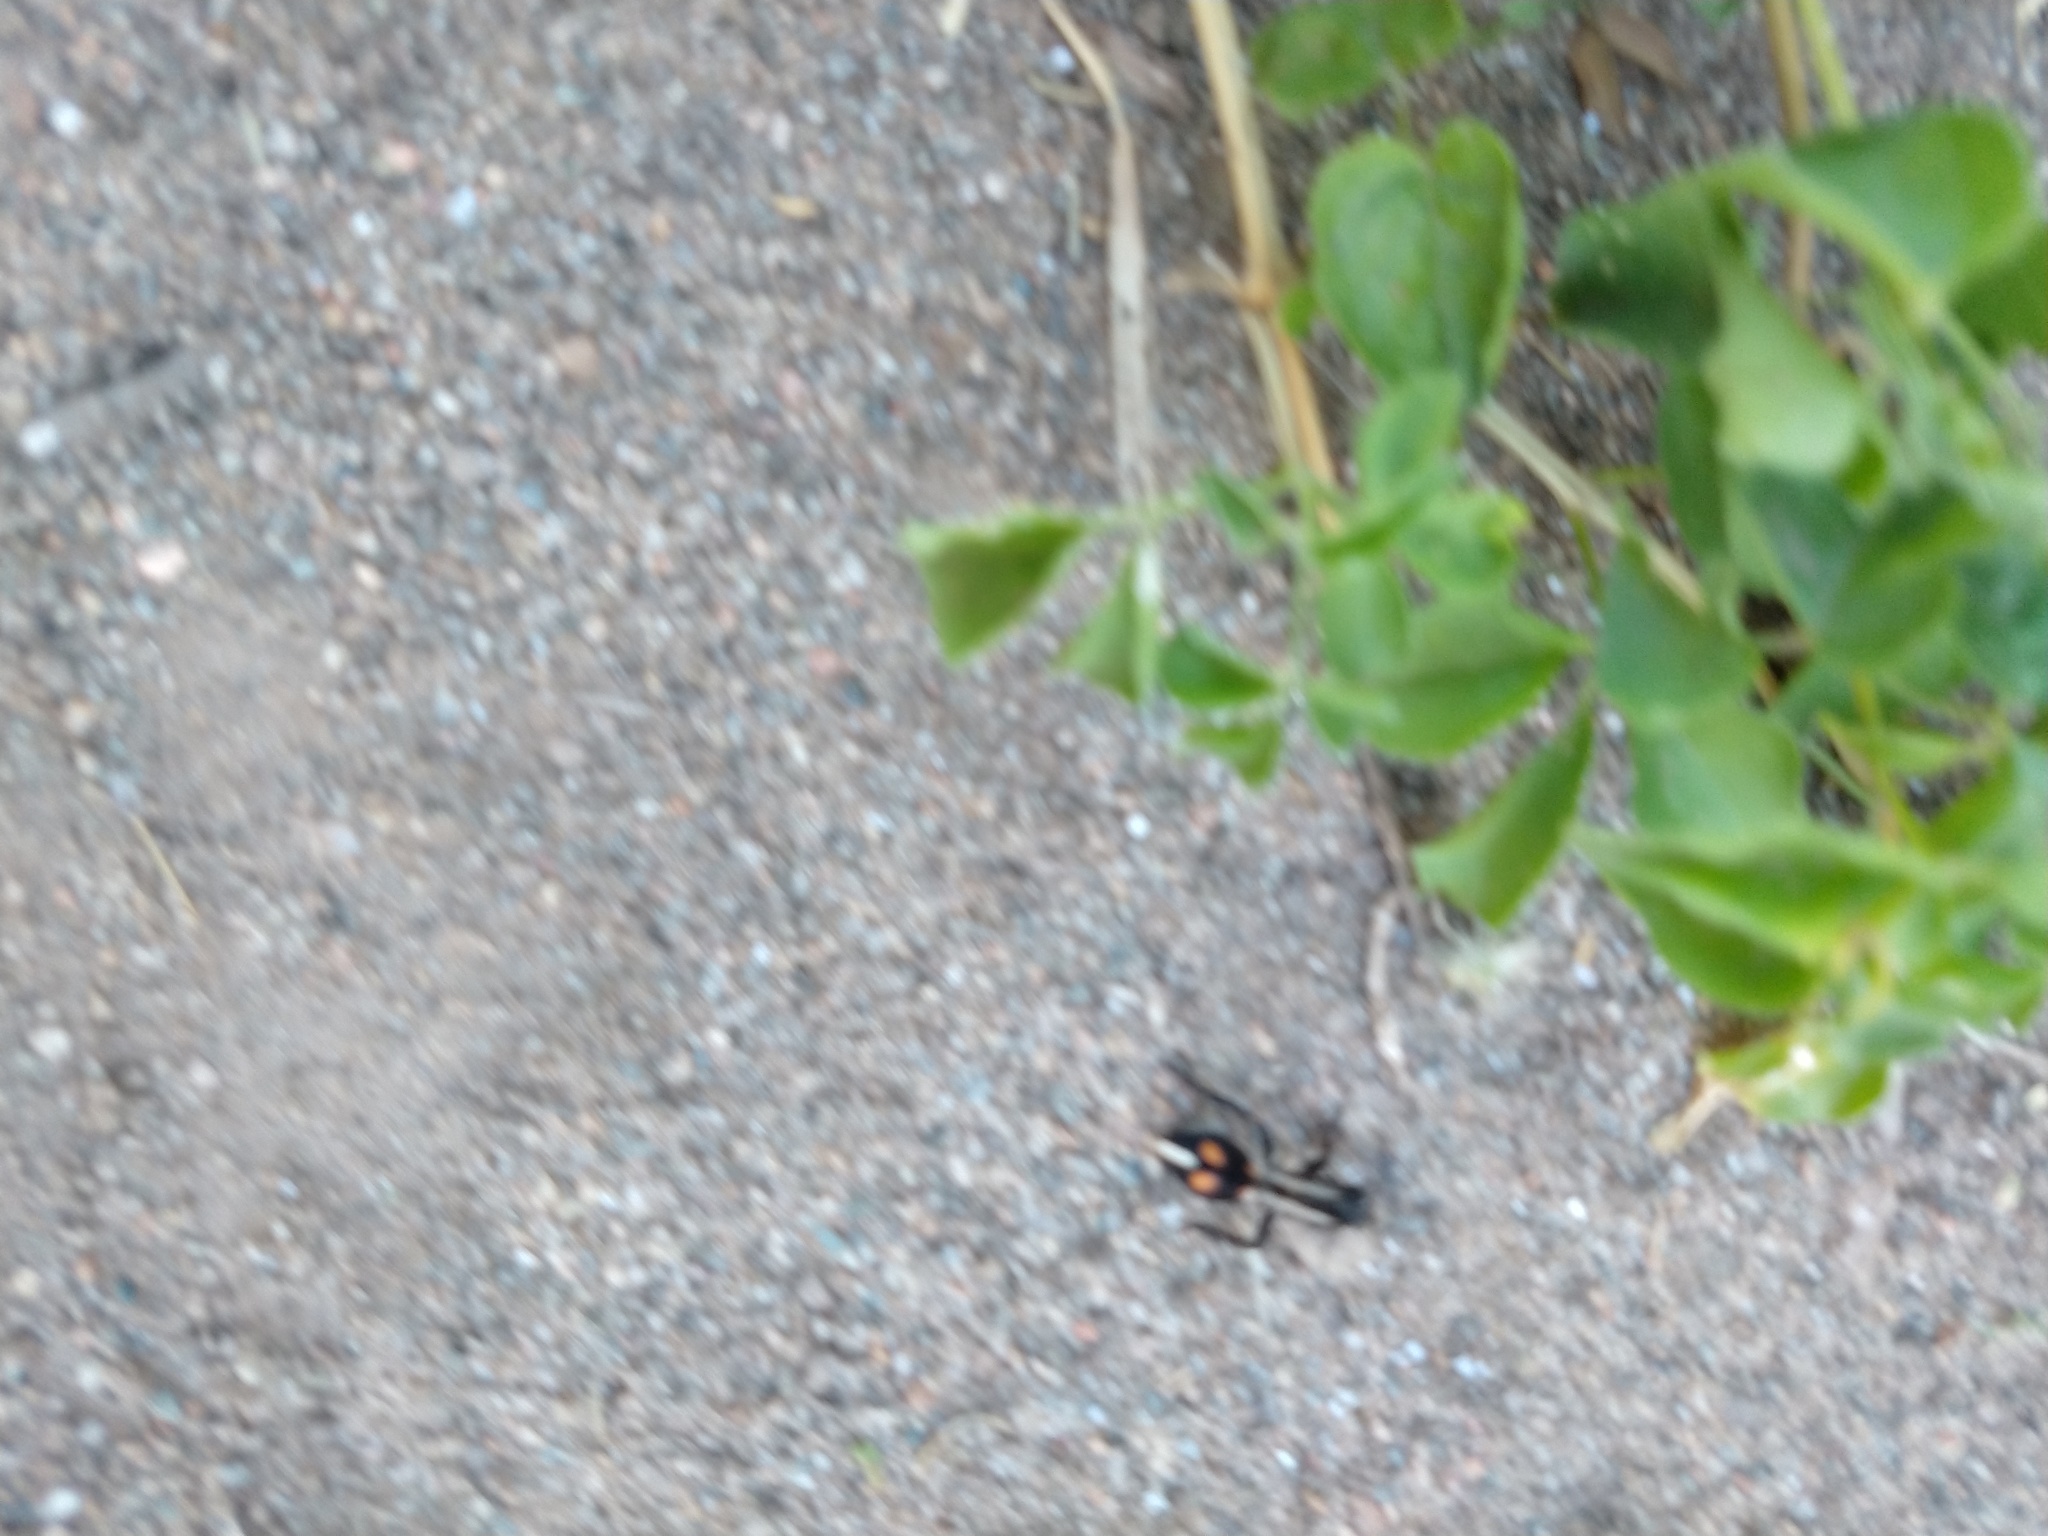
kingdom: Animalia
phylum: Arthropoda
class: Insecta
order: Hymenoptera
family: Mutillidae
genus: Traumatomutilla
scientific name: Traumatomutilla
